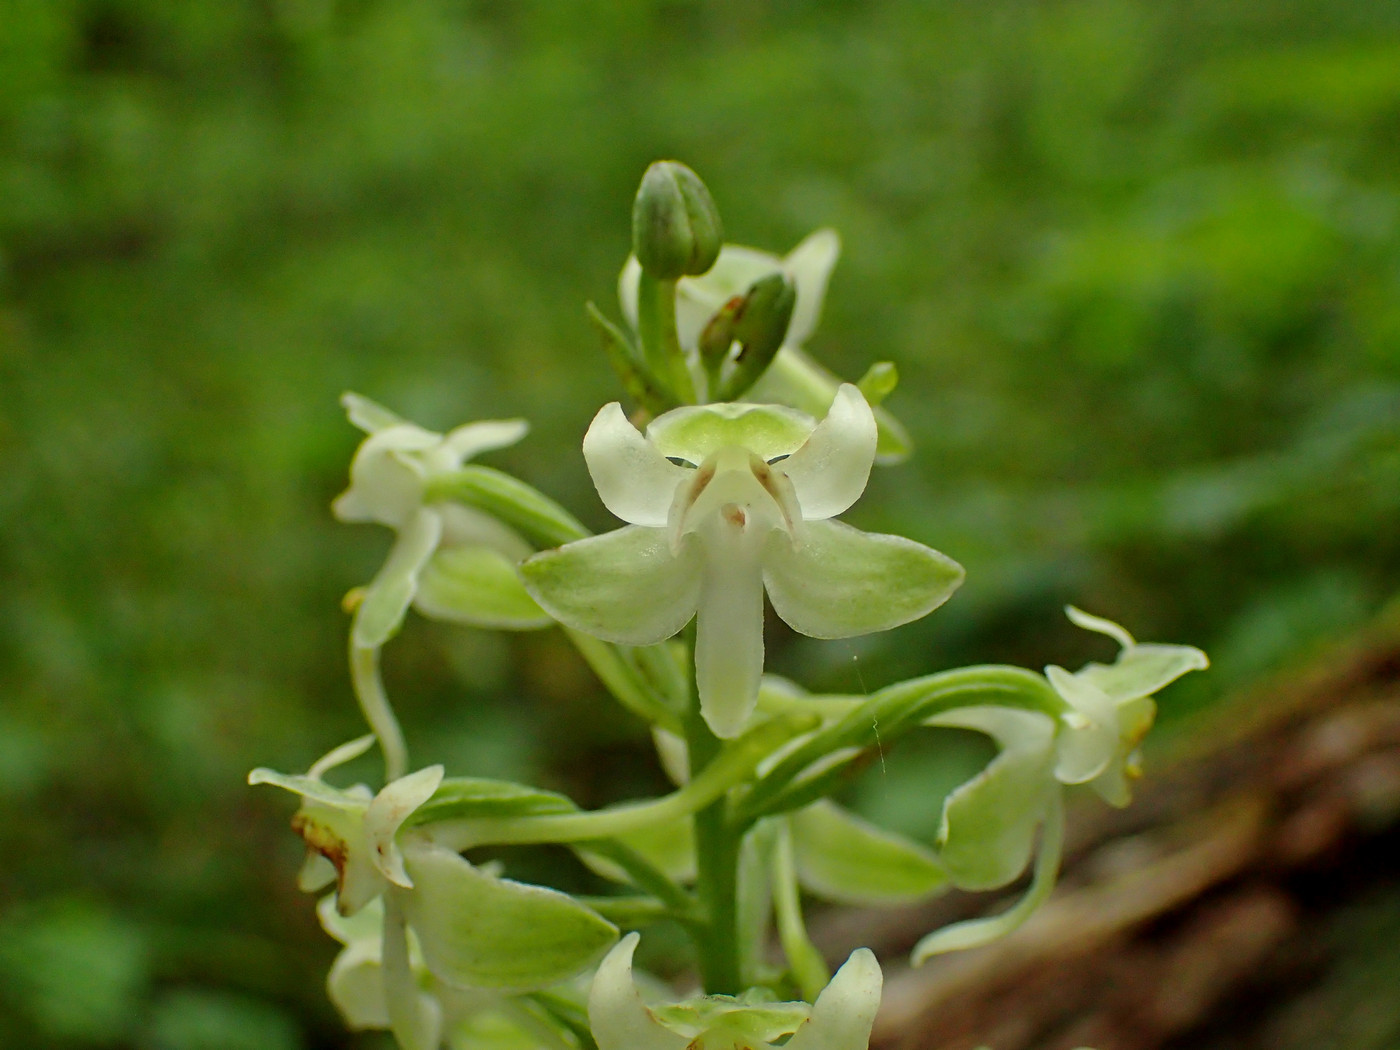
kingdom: Plantae
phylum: Tracheophyta
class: Liliopsida
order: Asparagales
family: Orchidaceae
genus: Platanthera
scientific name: Platanthera orbiculata
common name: Large round-leaved orchid
